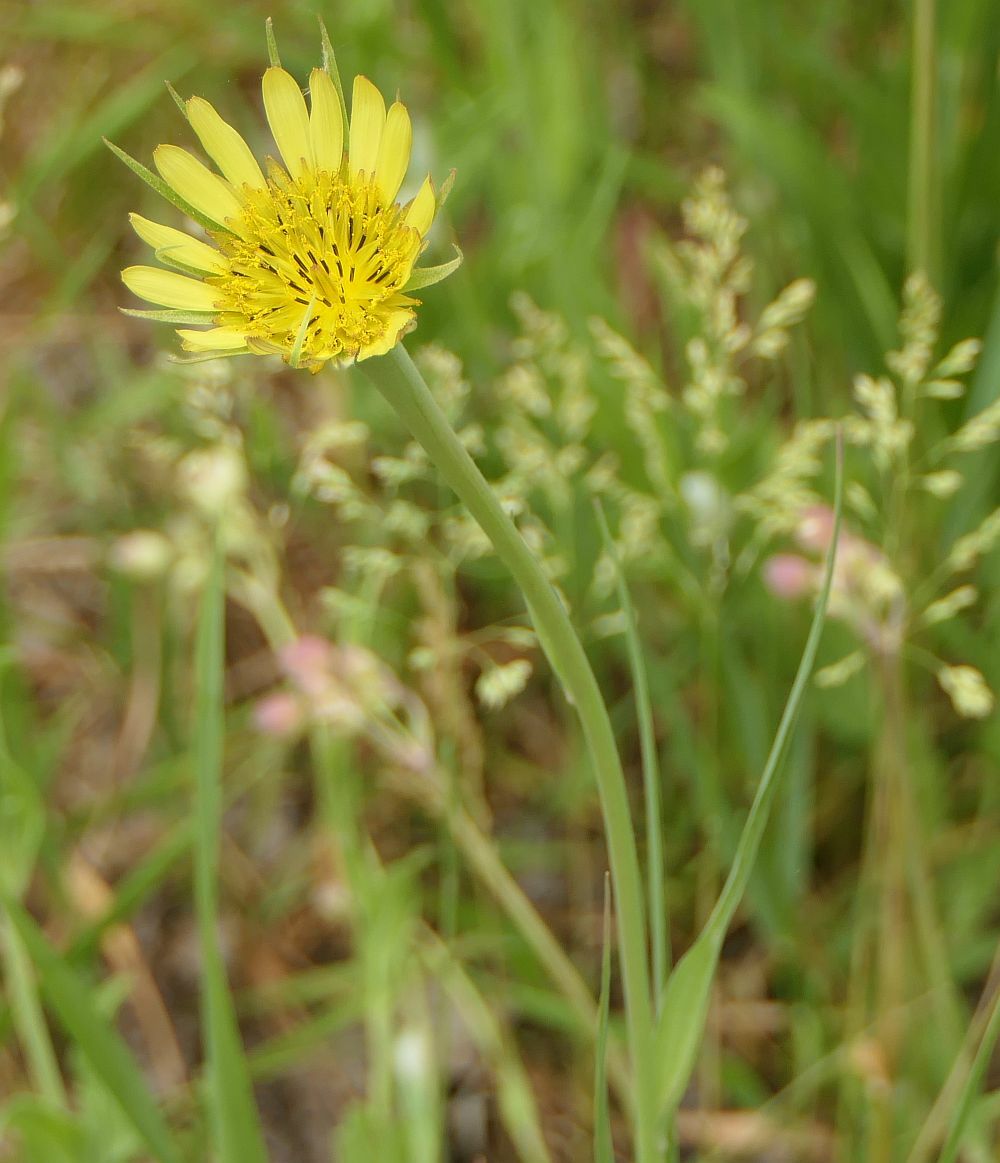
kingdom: Plantae
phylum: Tracheophyta
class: Magnoliopsida
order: Asterales
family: Asteraceae
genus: Tragopogon
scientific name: Tragopogon dubius
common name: Yellow salsify
